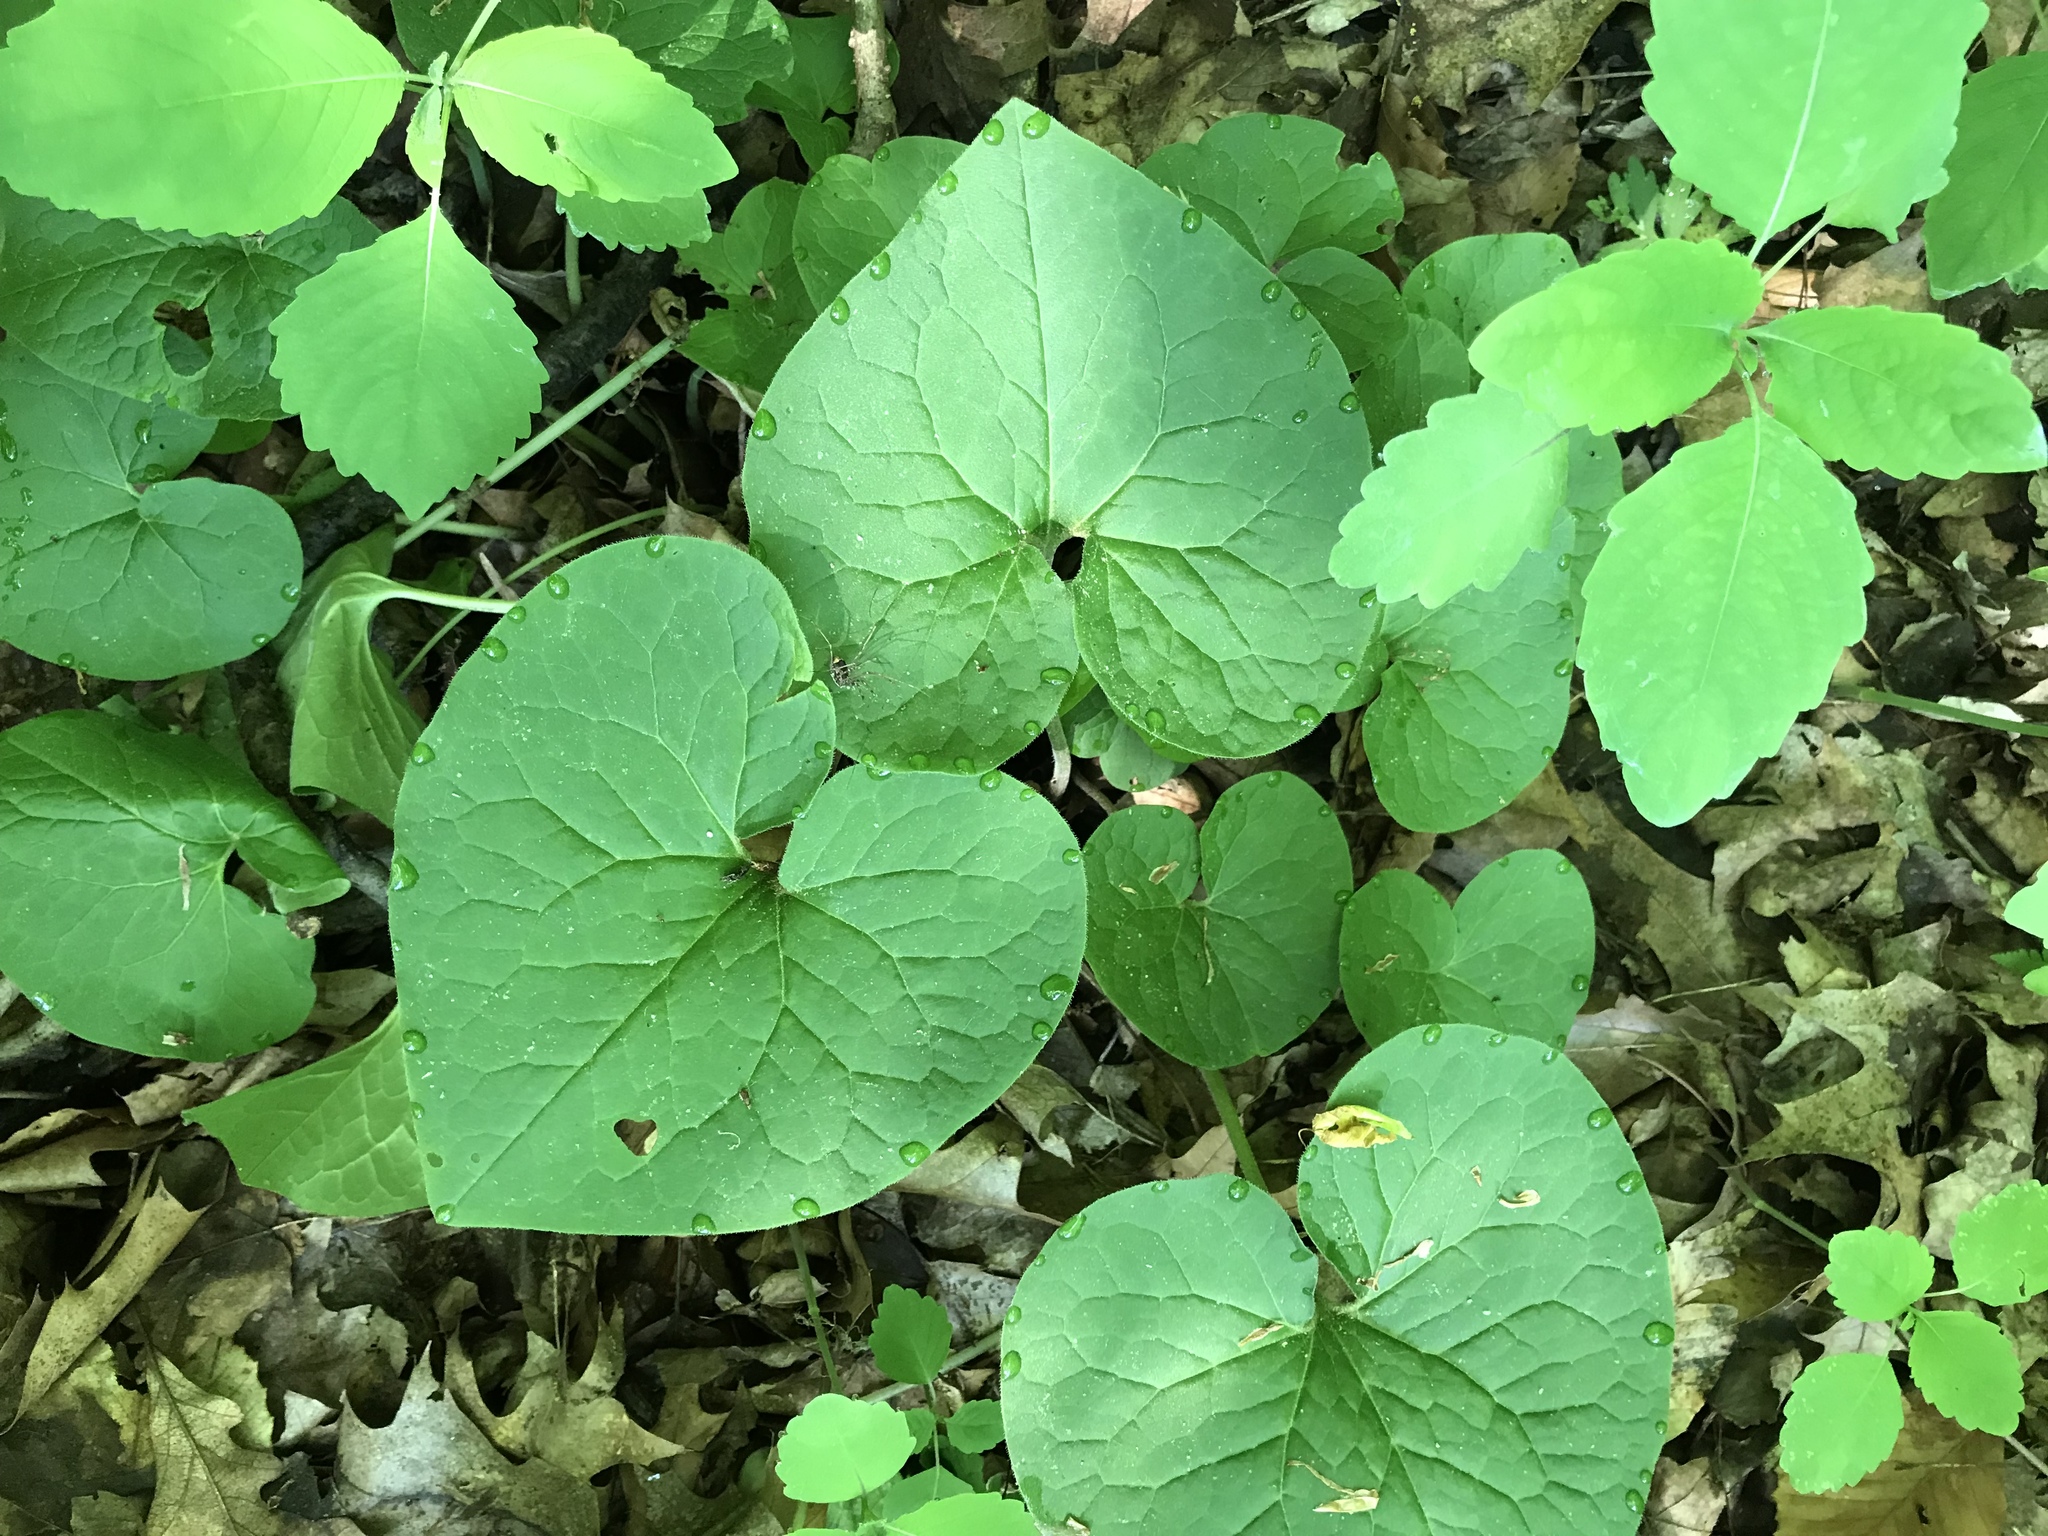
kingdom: Plantae
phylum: Tracheophyta
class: Magnoliopsida
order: Piperales
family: Aristolochiaceae
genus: Asarum
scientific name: Asarum canadense
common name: Wild ginger
